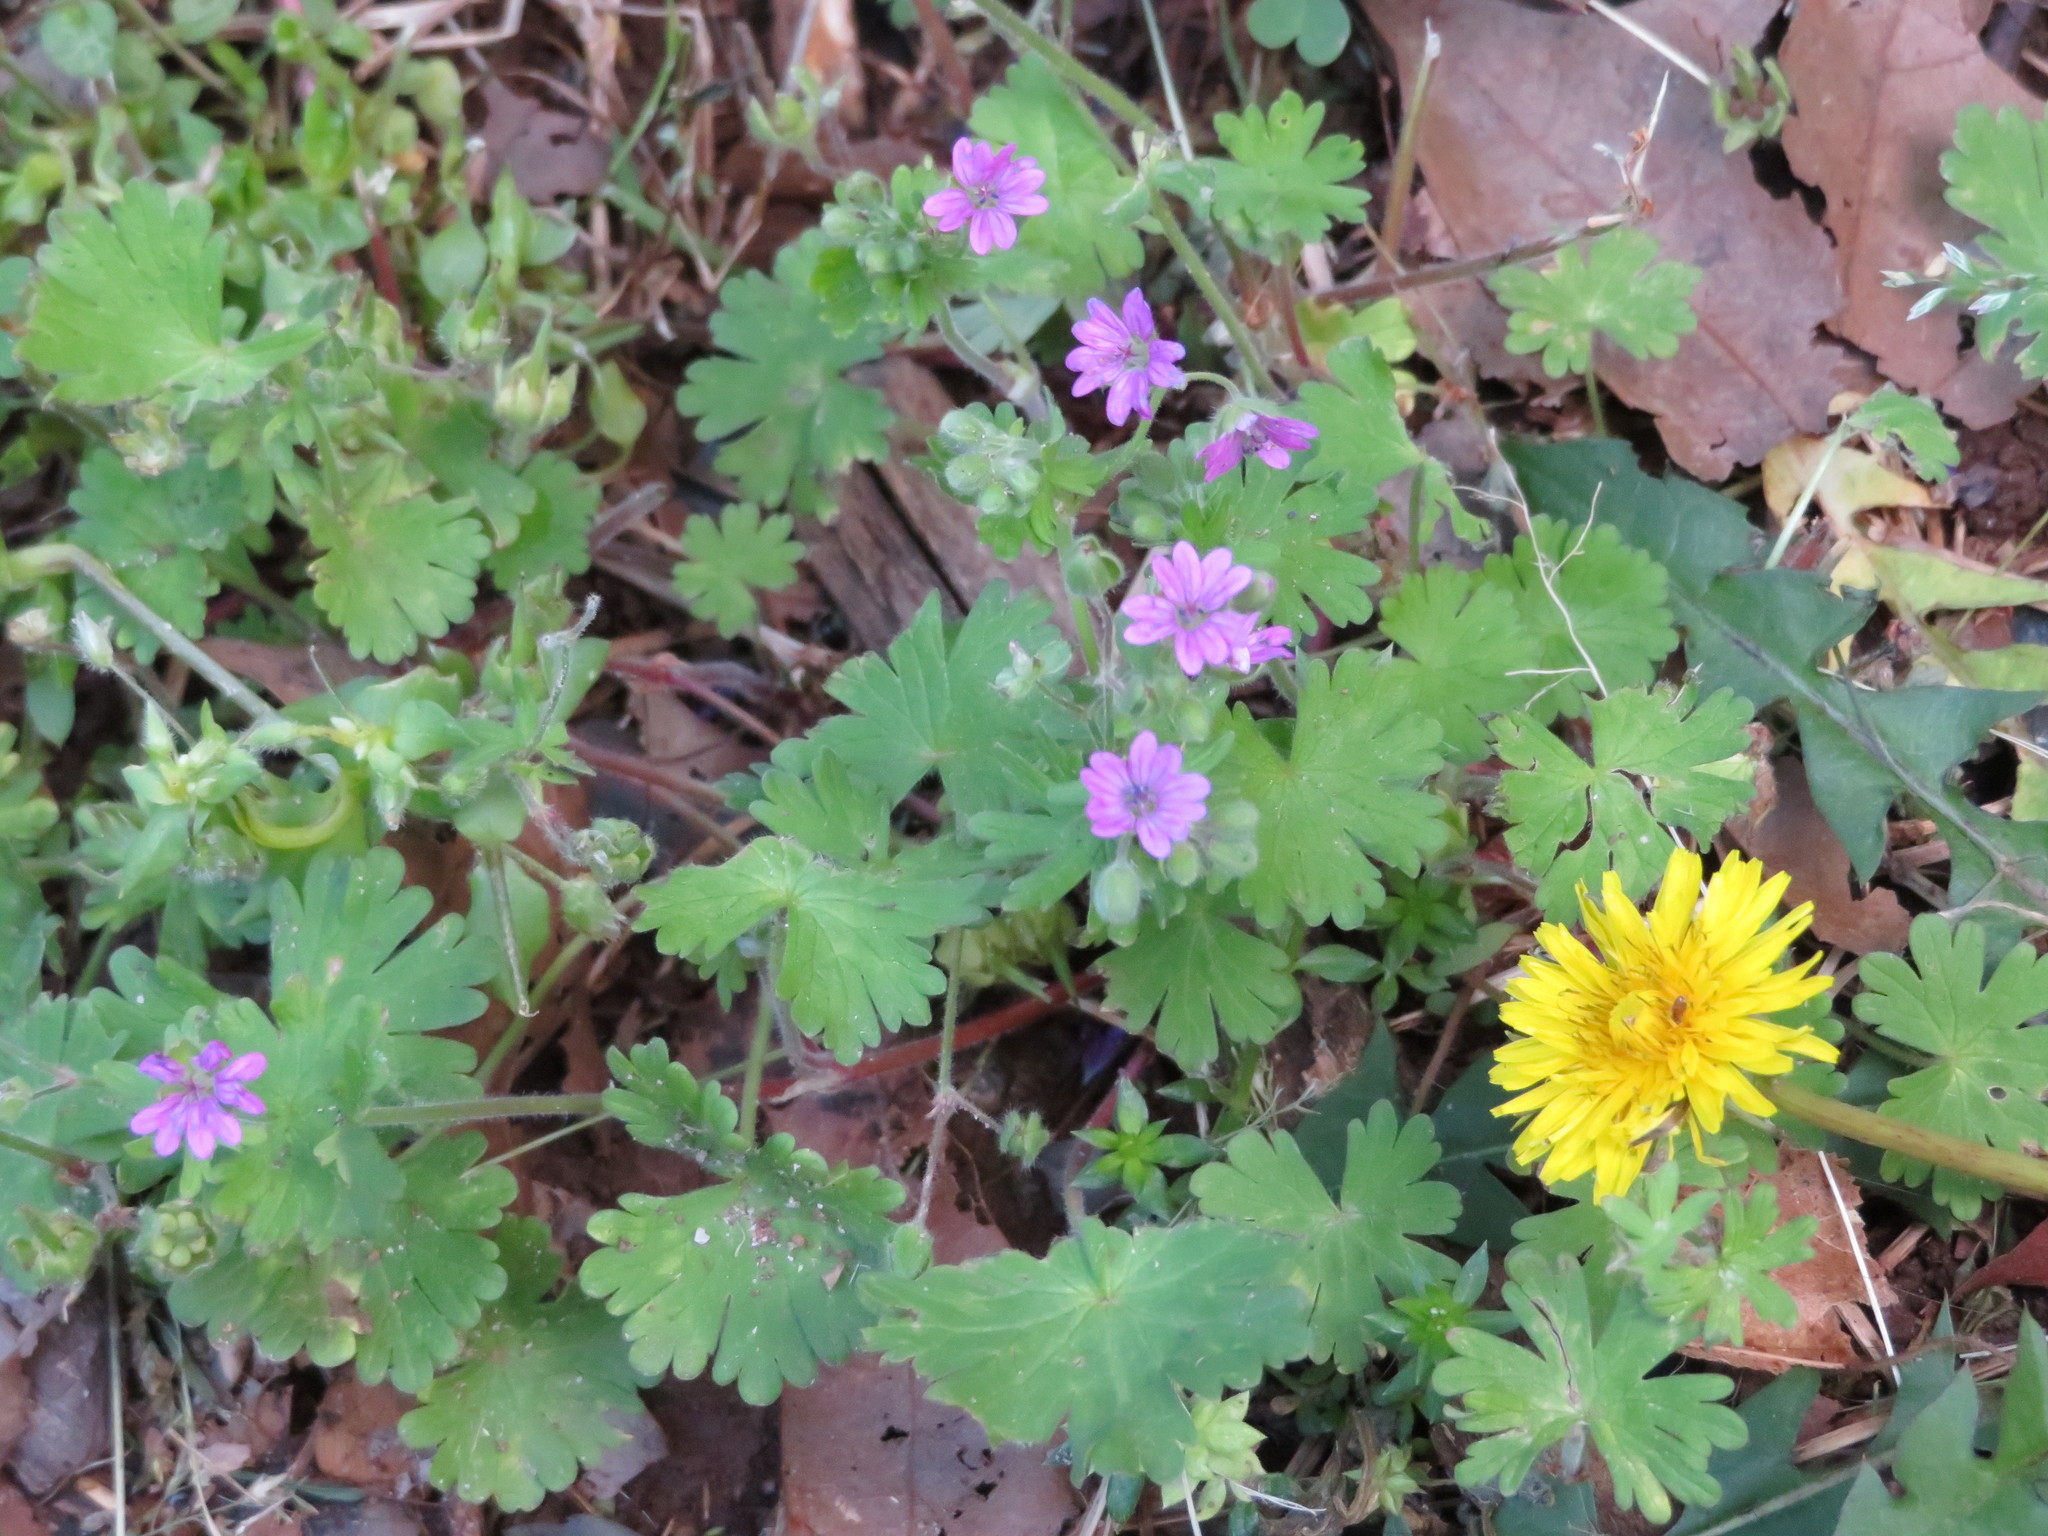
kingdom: Plantae
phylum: Tracheophyta
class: Magnoliopsida
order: Geraniales
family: Geraniaceae
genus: Geranium
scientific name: Geranium molle
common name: Dove's-foot crane's-bill
